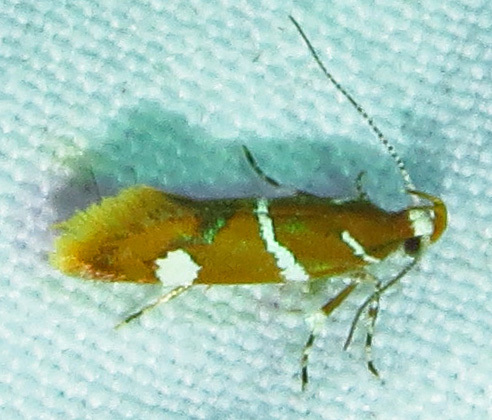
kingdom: Animalia
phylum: Arthropoda
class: Insecta
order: Lepidoptera
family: Oecophoridae
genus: Promalactis
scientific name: Promalactis suzukiella
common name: Moth
